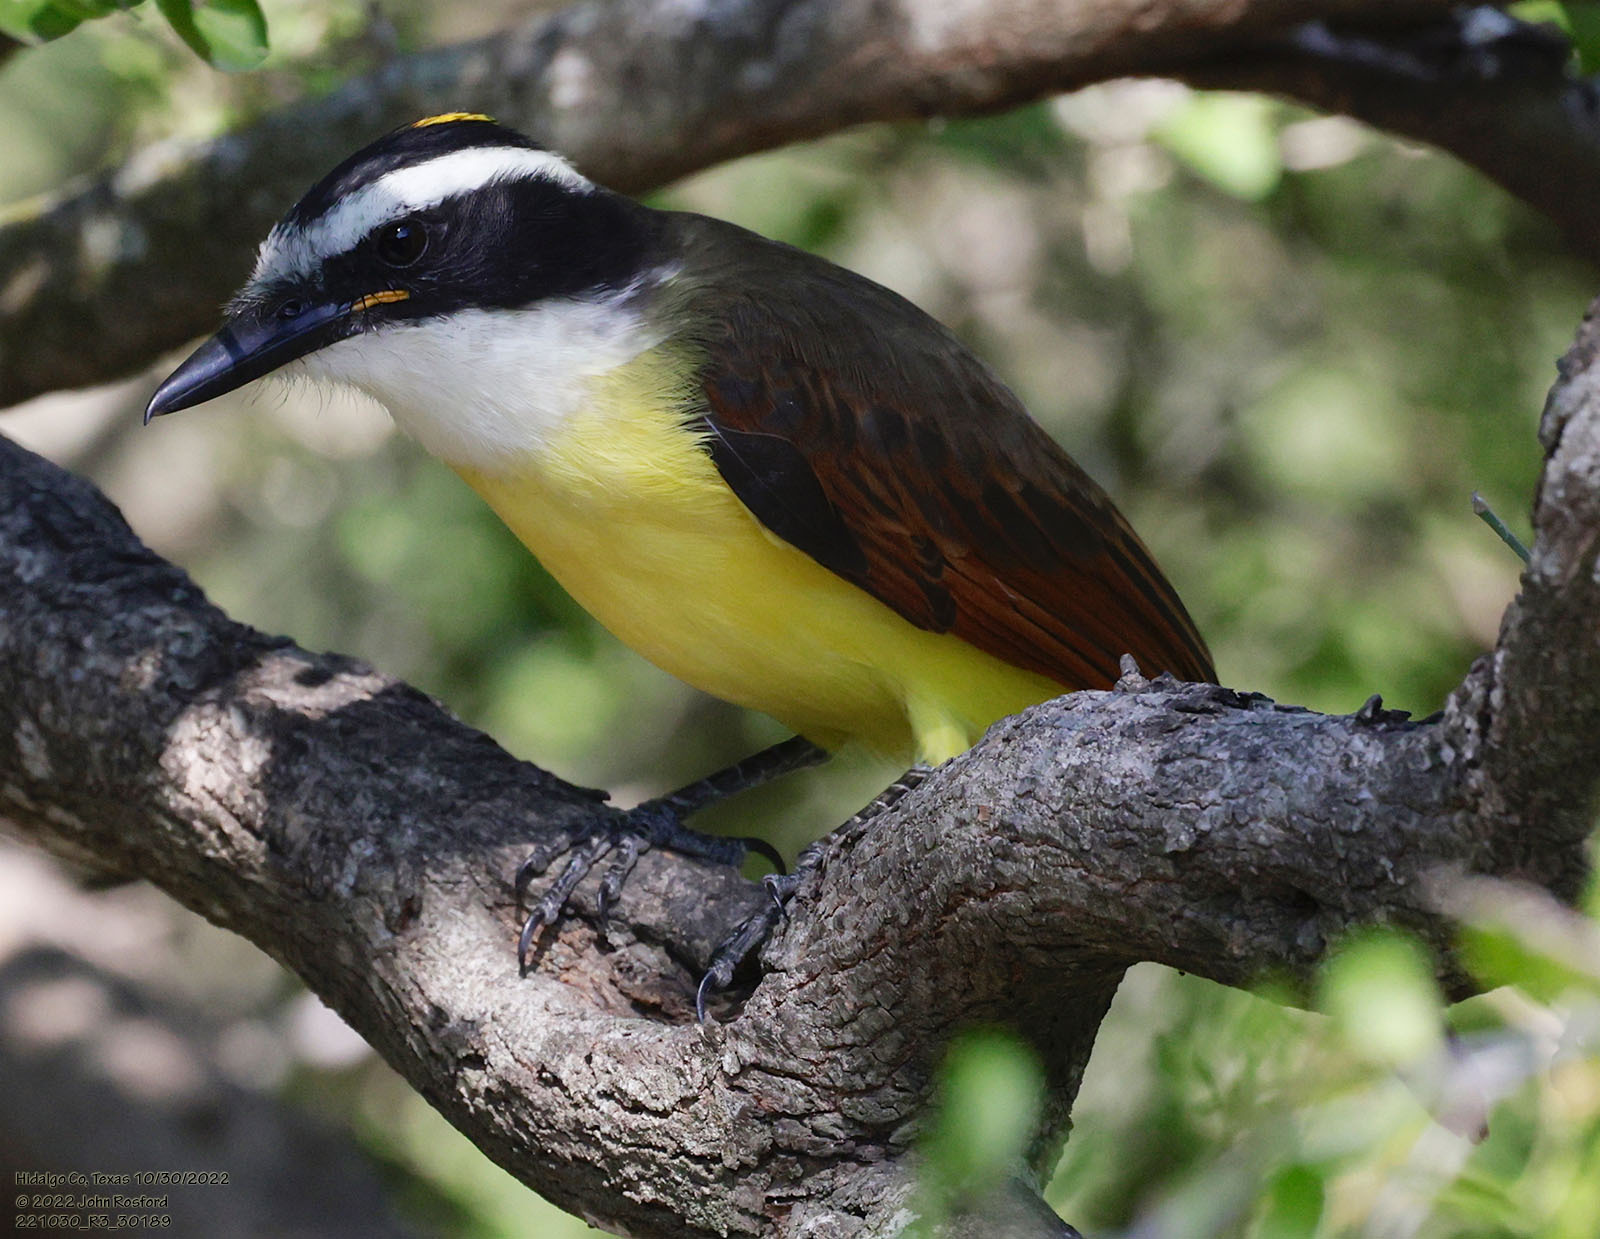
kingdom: Animalia
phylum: Chordata
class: Aves
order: Passeriformes
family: Tyrannidae
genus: Pitangus
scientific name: Pitangus sulphuratus
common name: Great kiskadee
